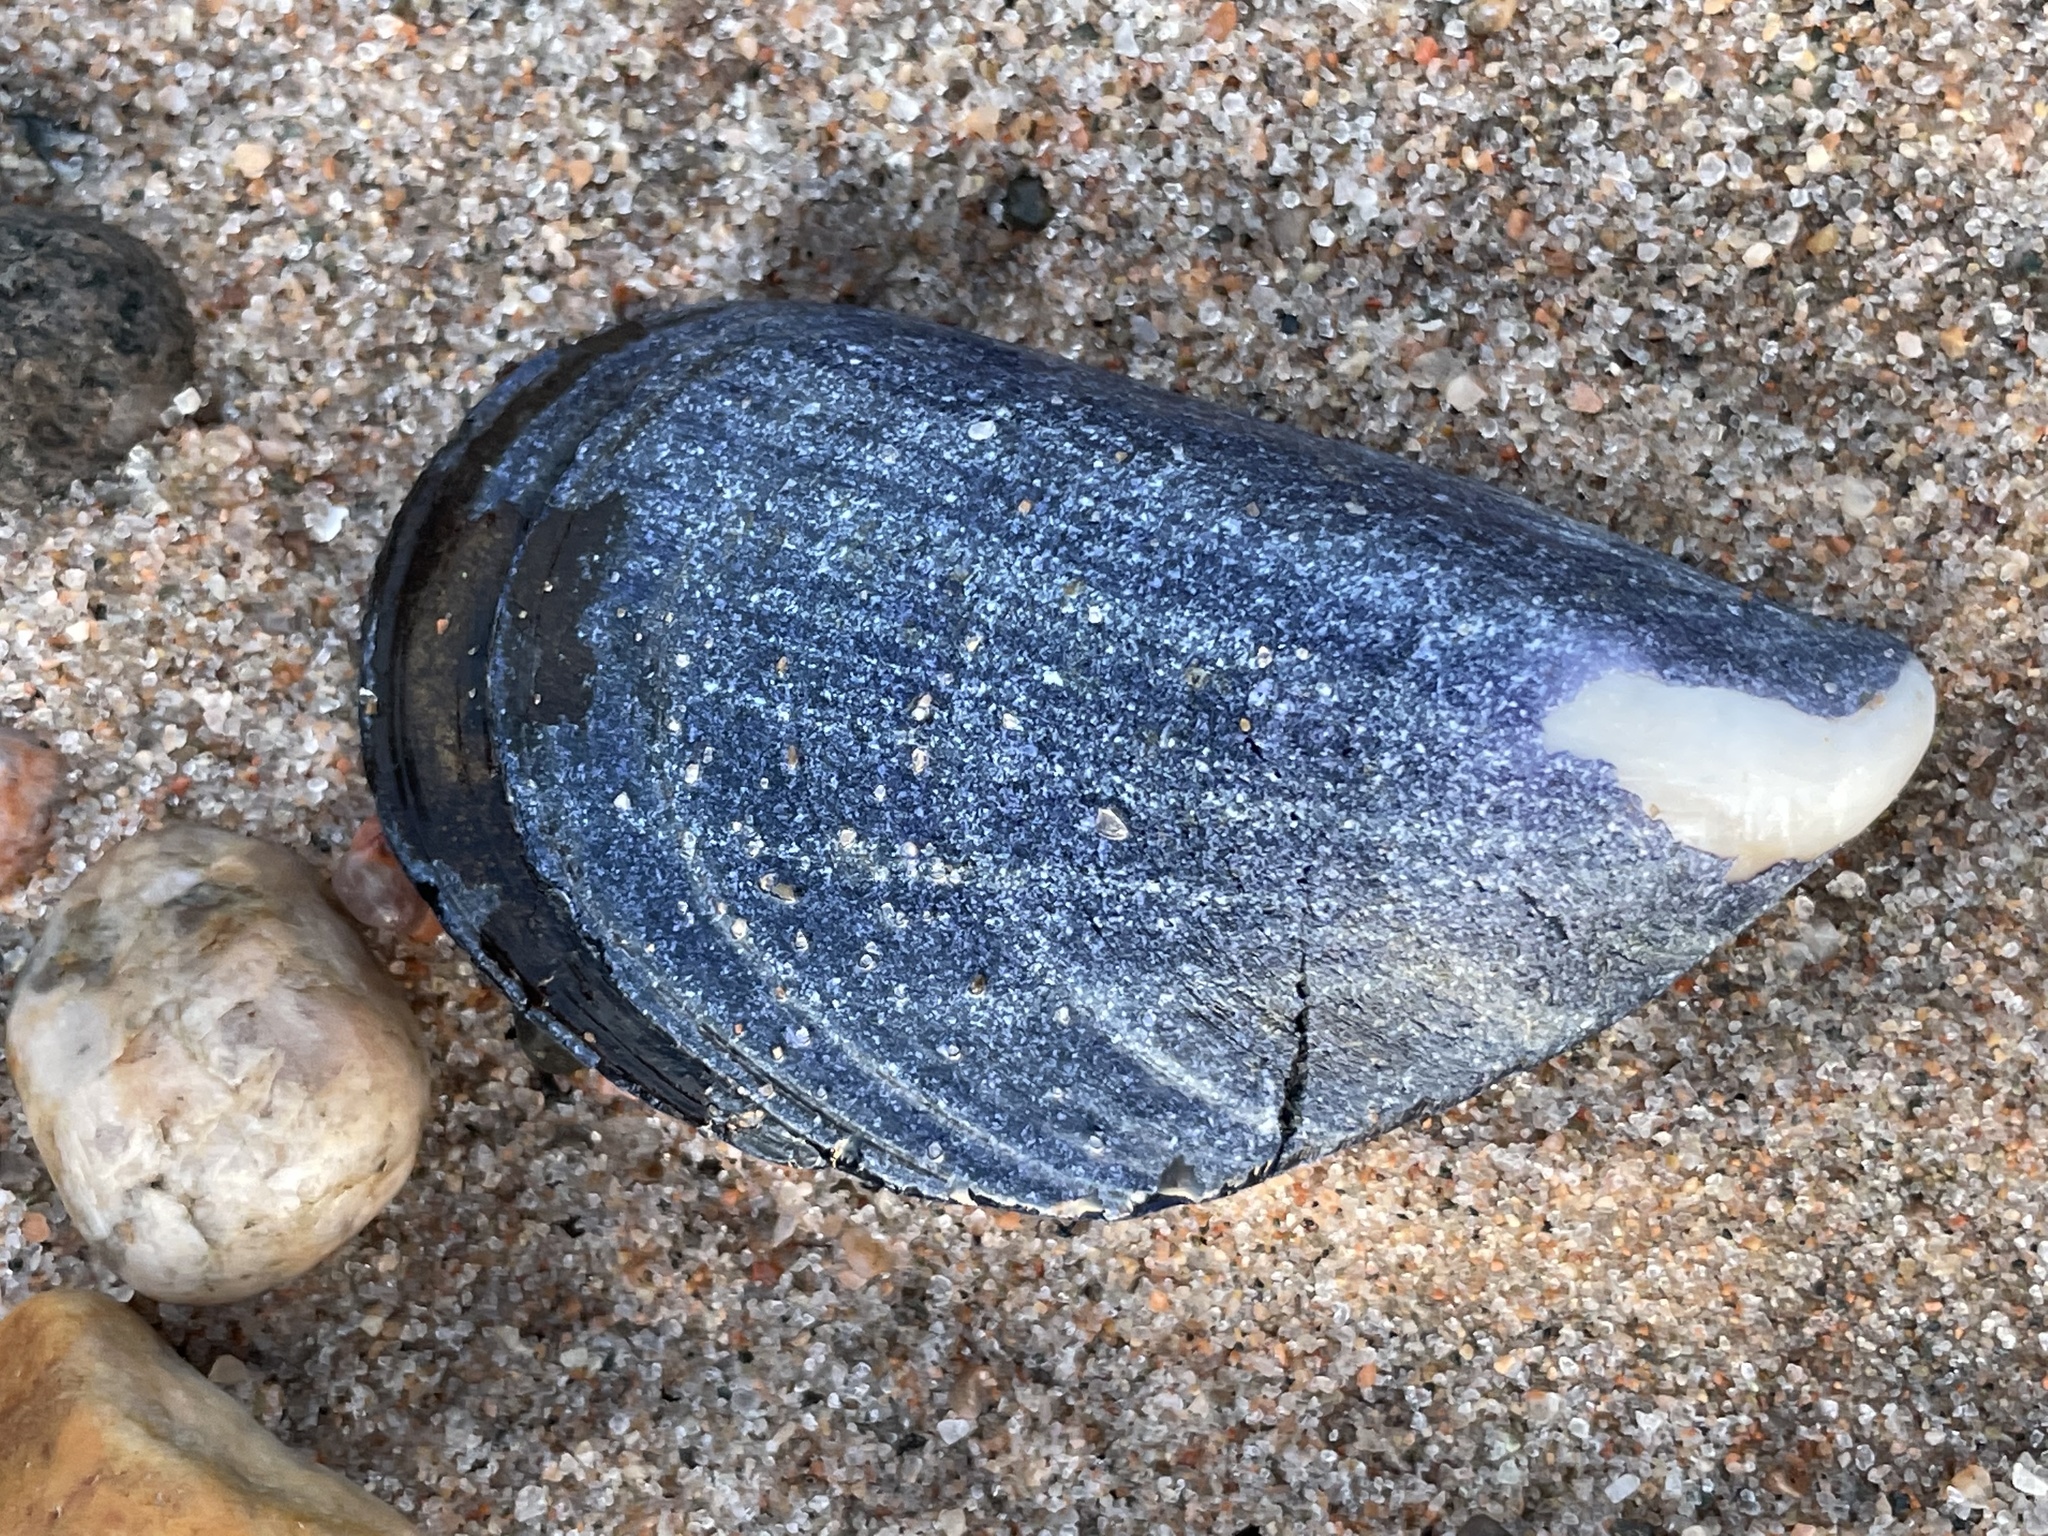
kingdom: Animalia
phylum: Mollusca
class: Bivalvia
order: Mytilida
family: Mytilidae
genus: Mytilus
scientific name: Mytilus edulis
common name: Blue mussel
